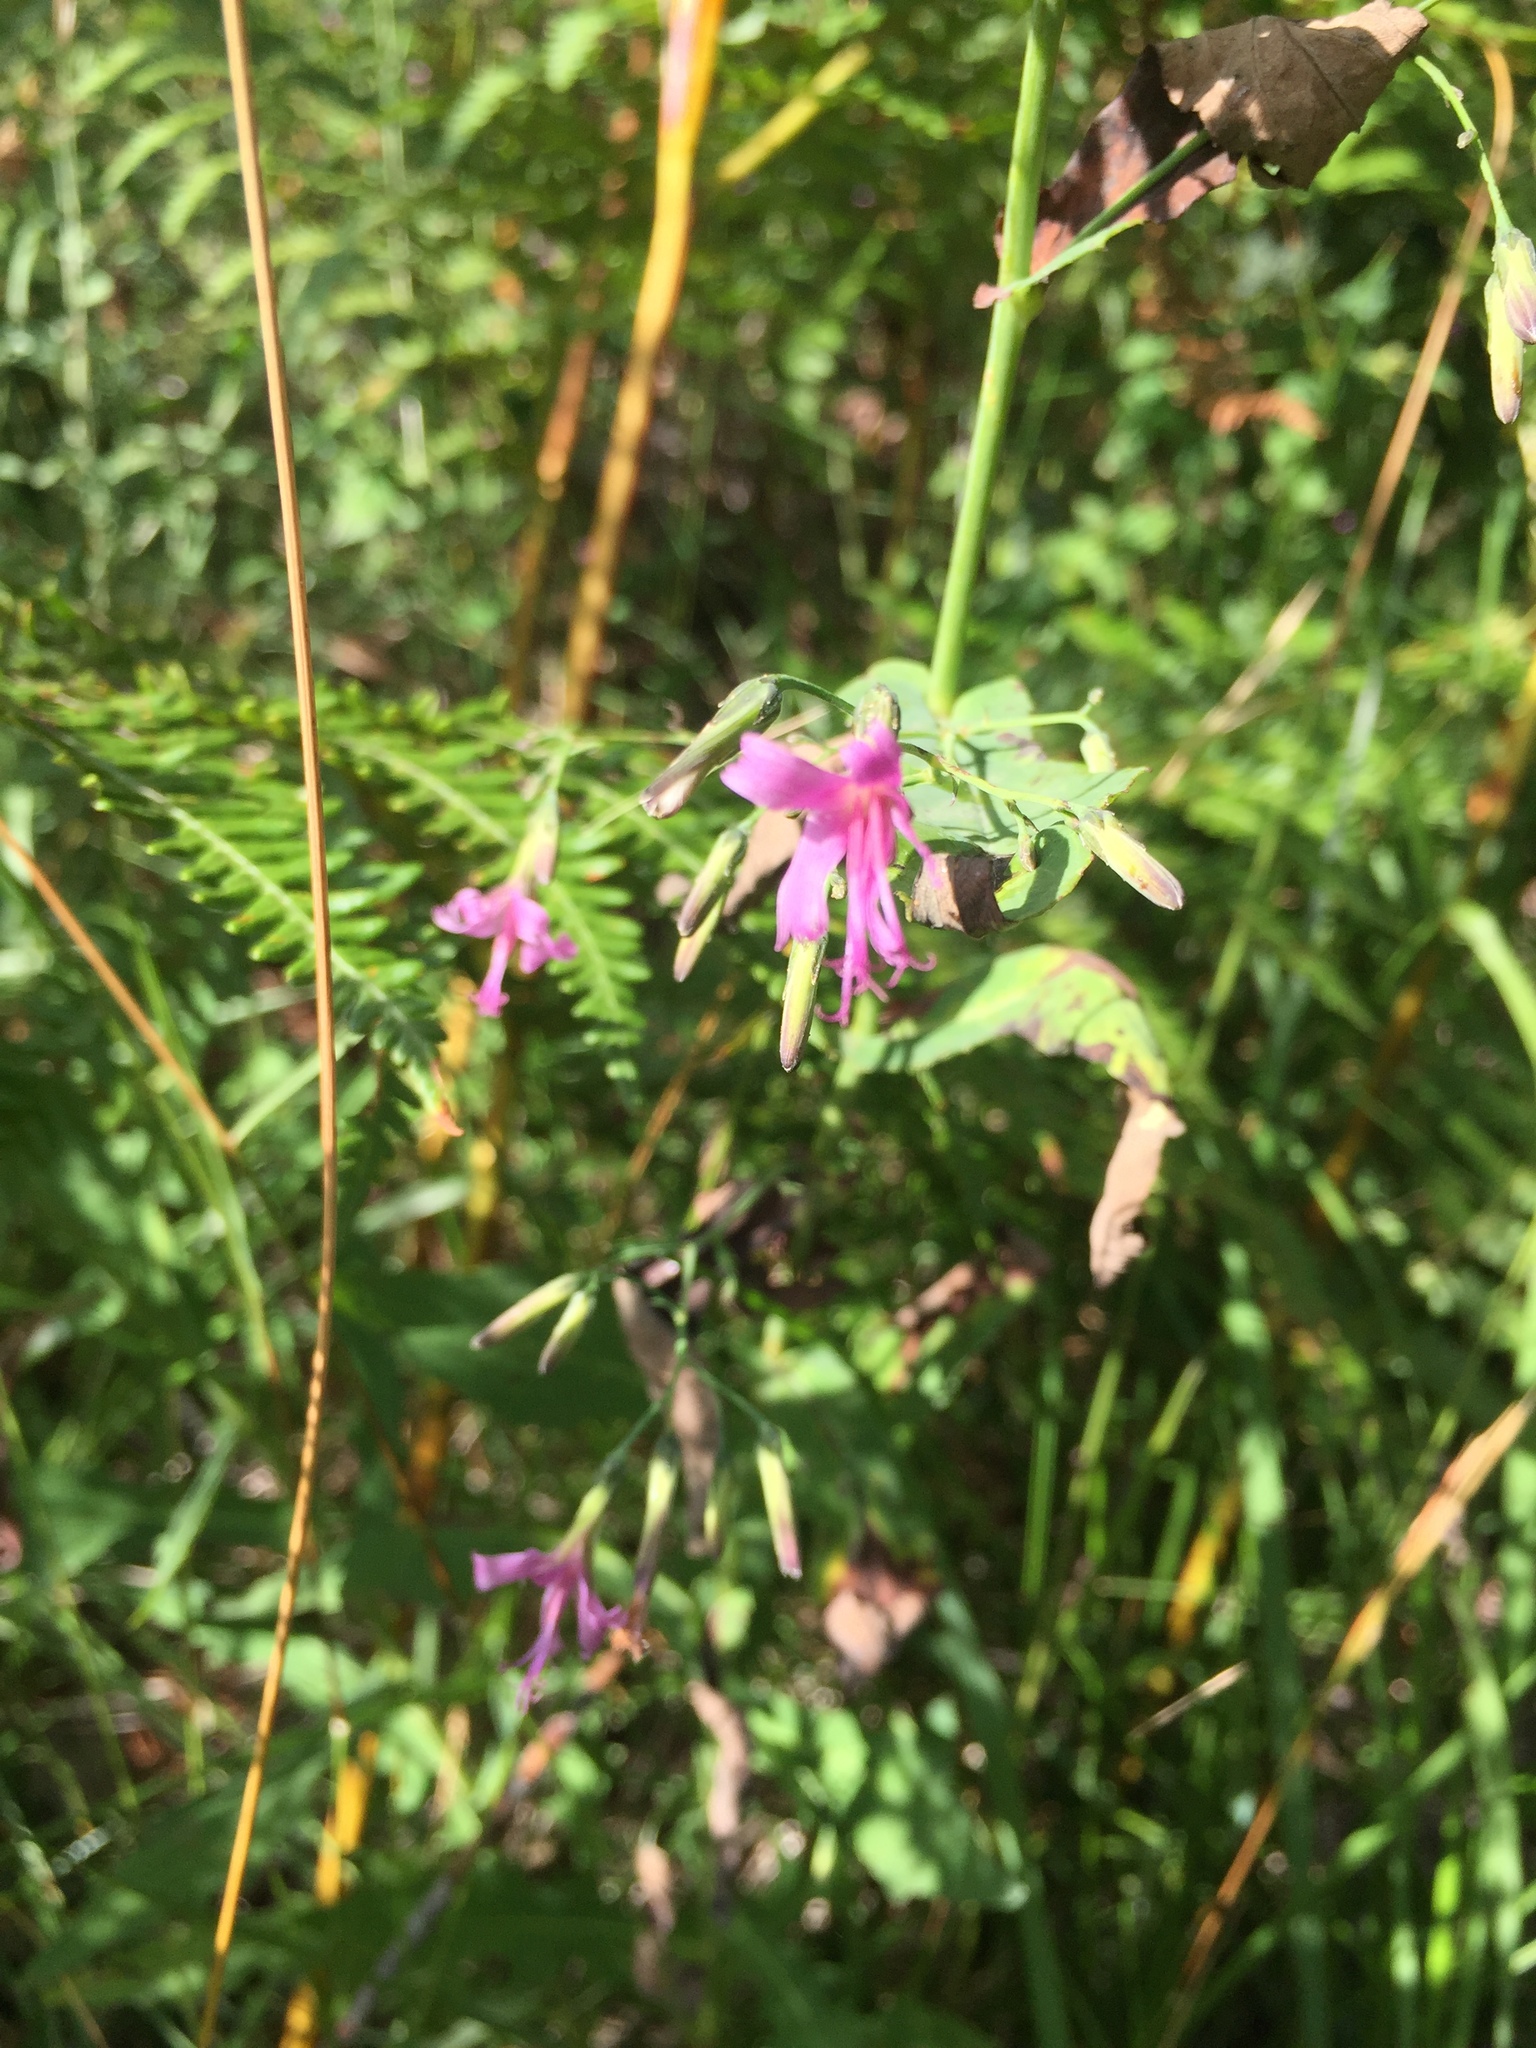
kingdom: Plantae
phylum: Tracheophyta
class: Magnoliopsida
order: Asterales
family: Asteraceae
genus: Prenanthes
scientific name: Prenanthes purpurea
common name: Purple lettuce
